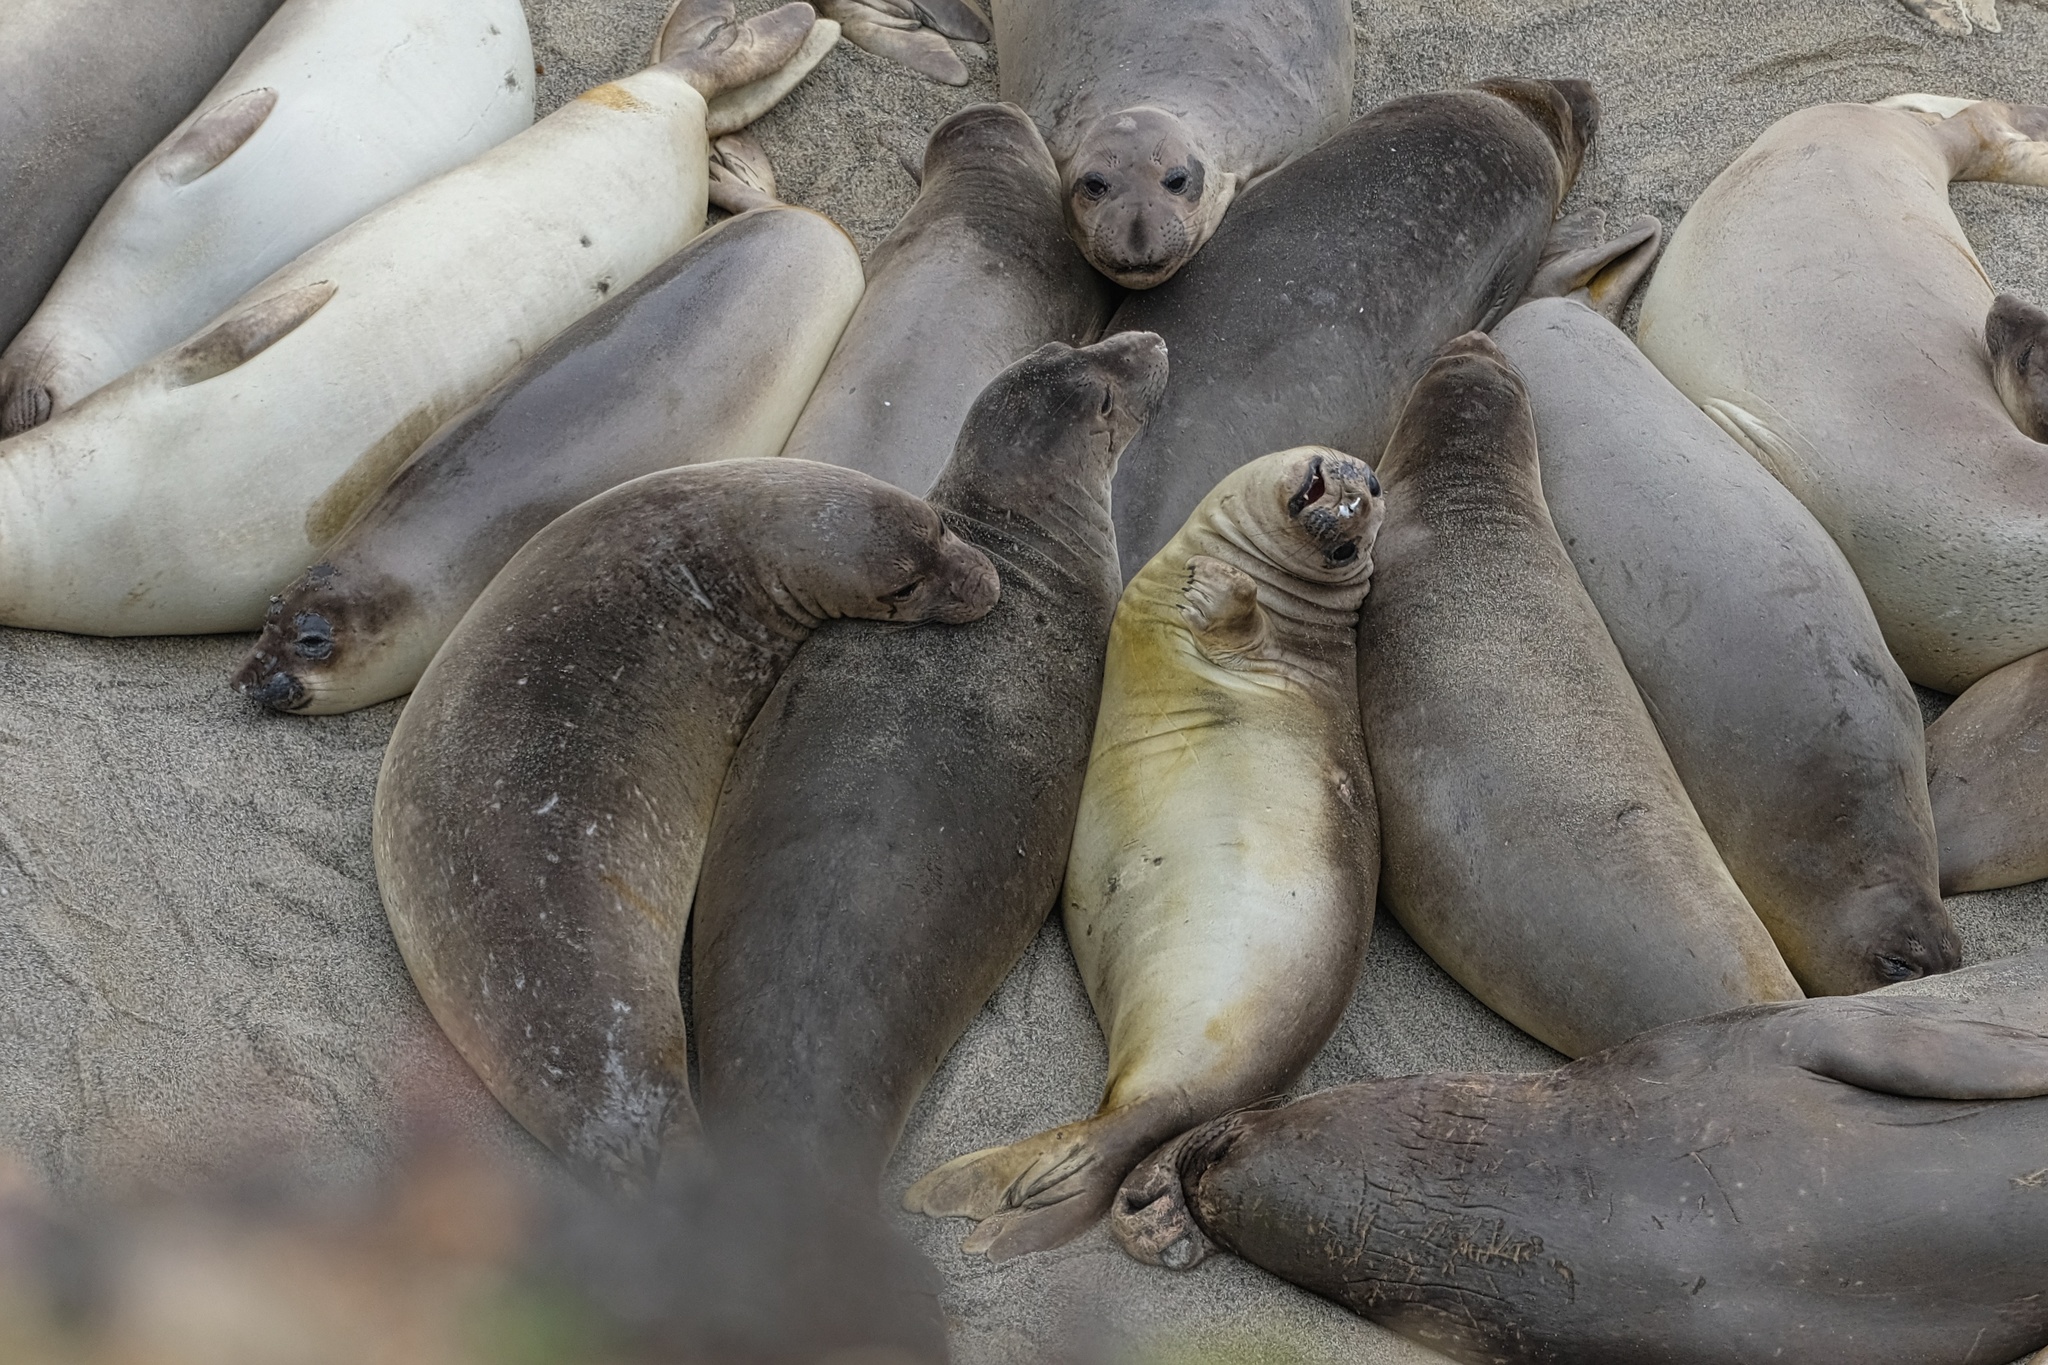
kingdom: Animalia
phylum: Chordata
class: Mammalia
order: Carnivora
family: Phocidae
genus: Mirounga
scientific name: Mirounga angustirostris
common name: Northern elephant seal
